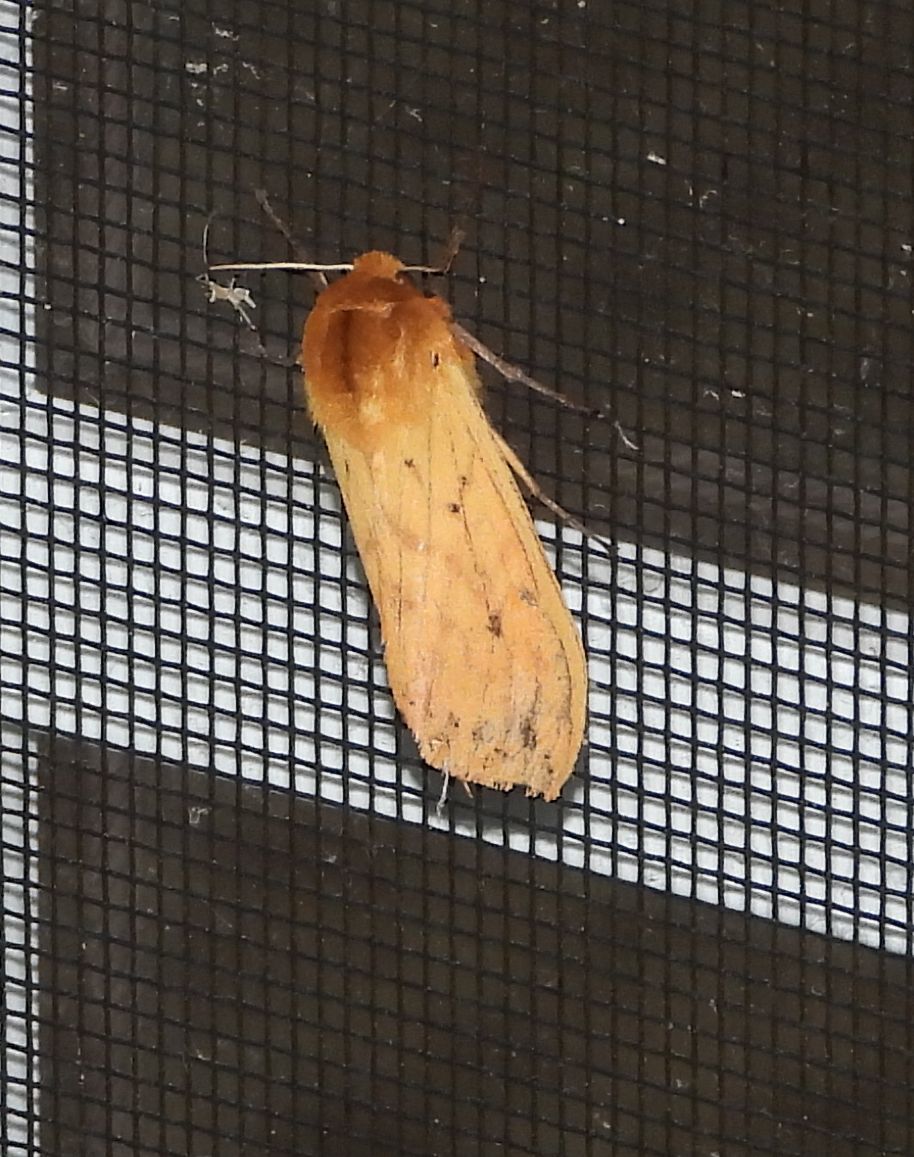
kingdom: Animalia
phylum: Arthropoda
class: Insecta
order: Lepidoptera
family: Erebidae
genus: Pyrrharctia
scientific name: Pyrrharctia isabella
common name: Isabella tiger moth
